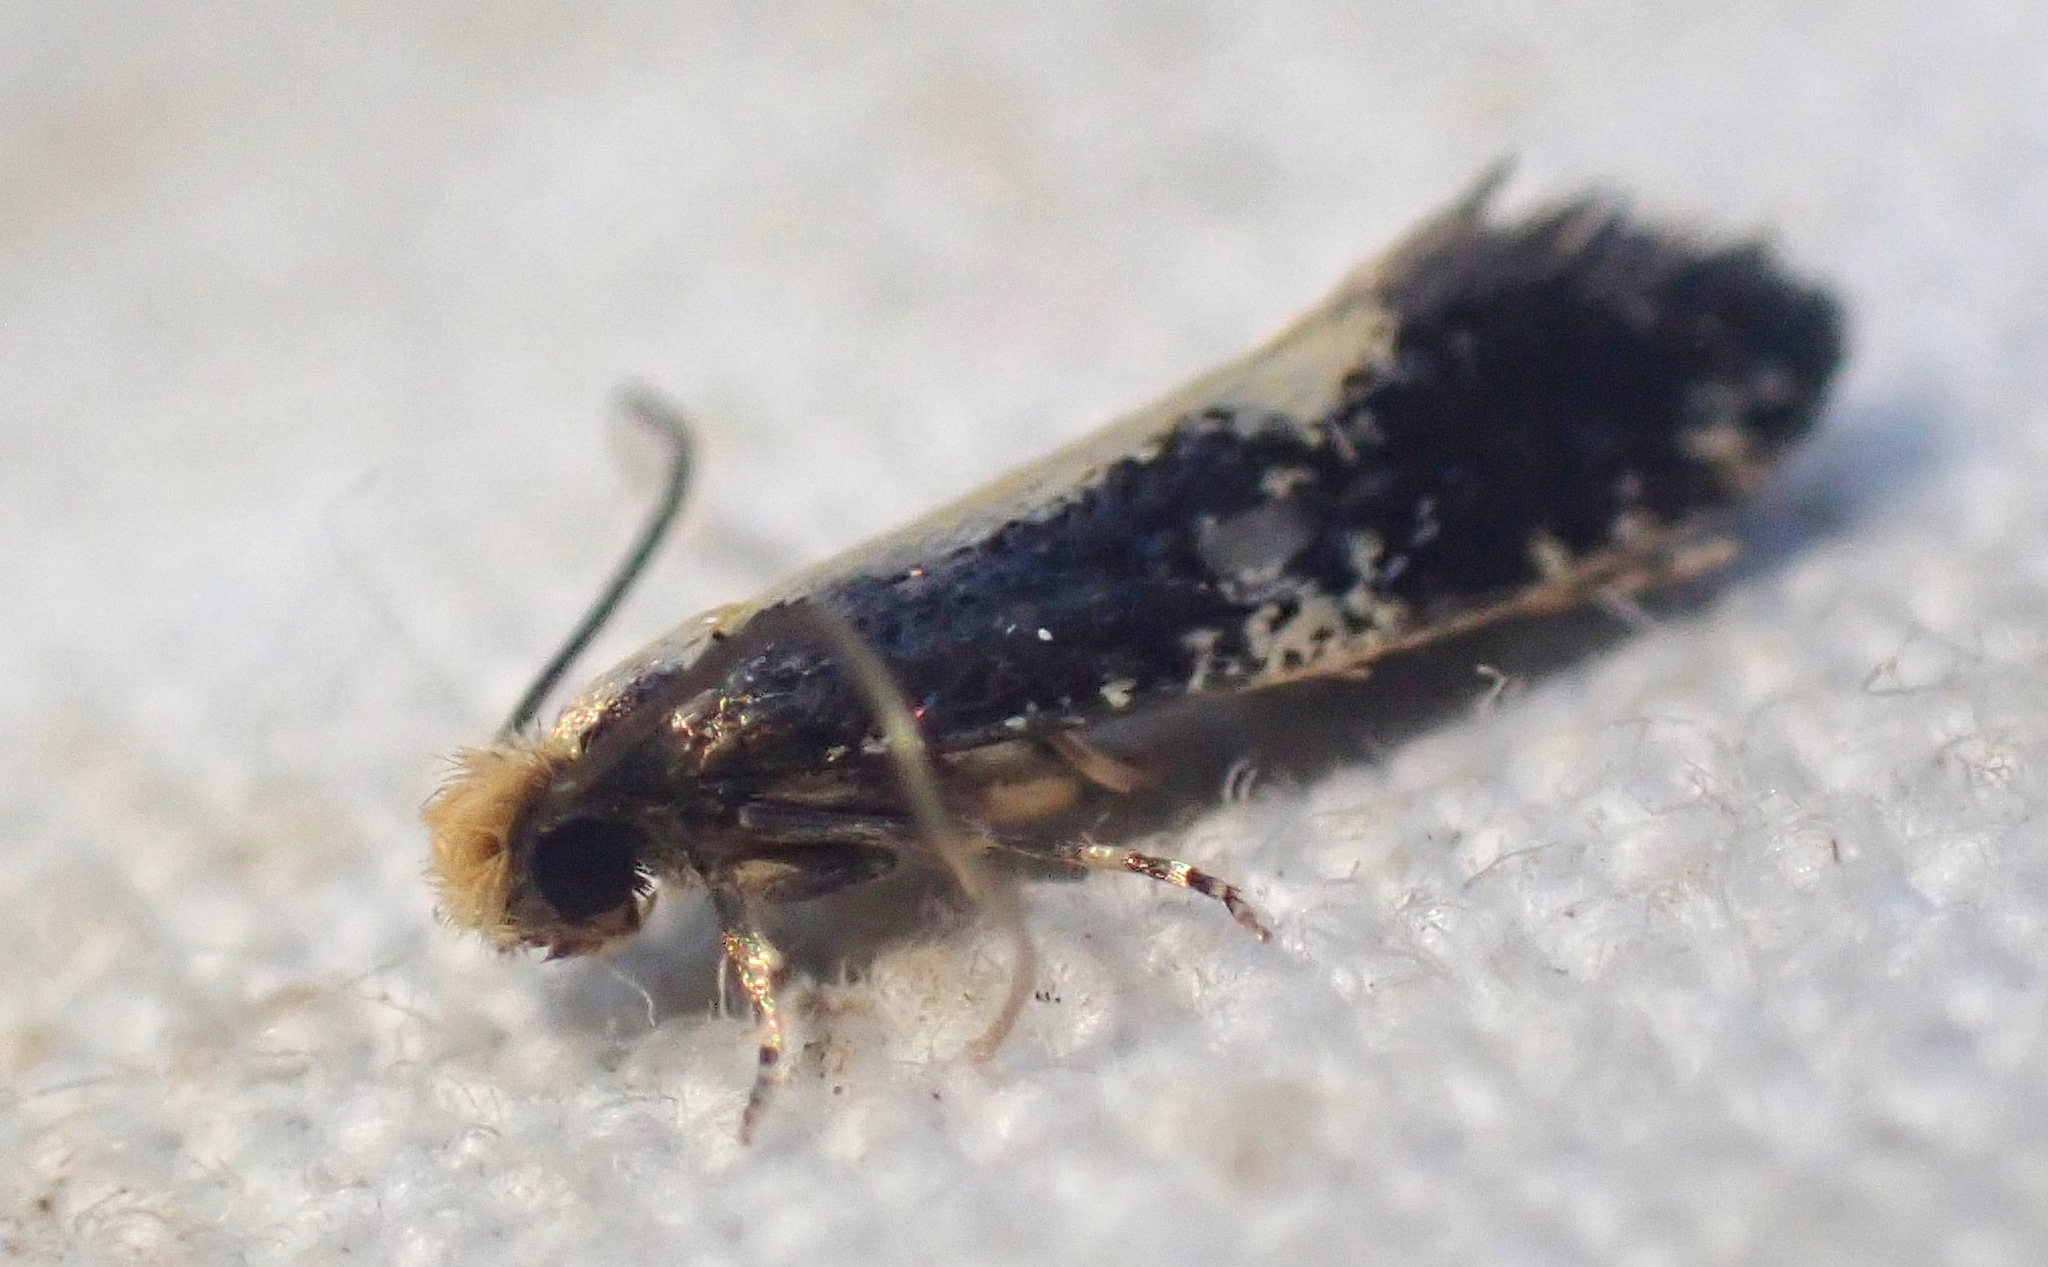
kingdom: Animalia
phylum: Arthropoda
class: Insecta
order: Lepidoptera
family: Tineidae
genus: Monopis
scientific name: Monopis obviella
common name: Tineid moth
